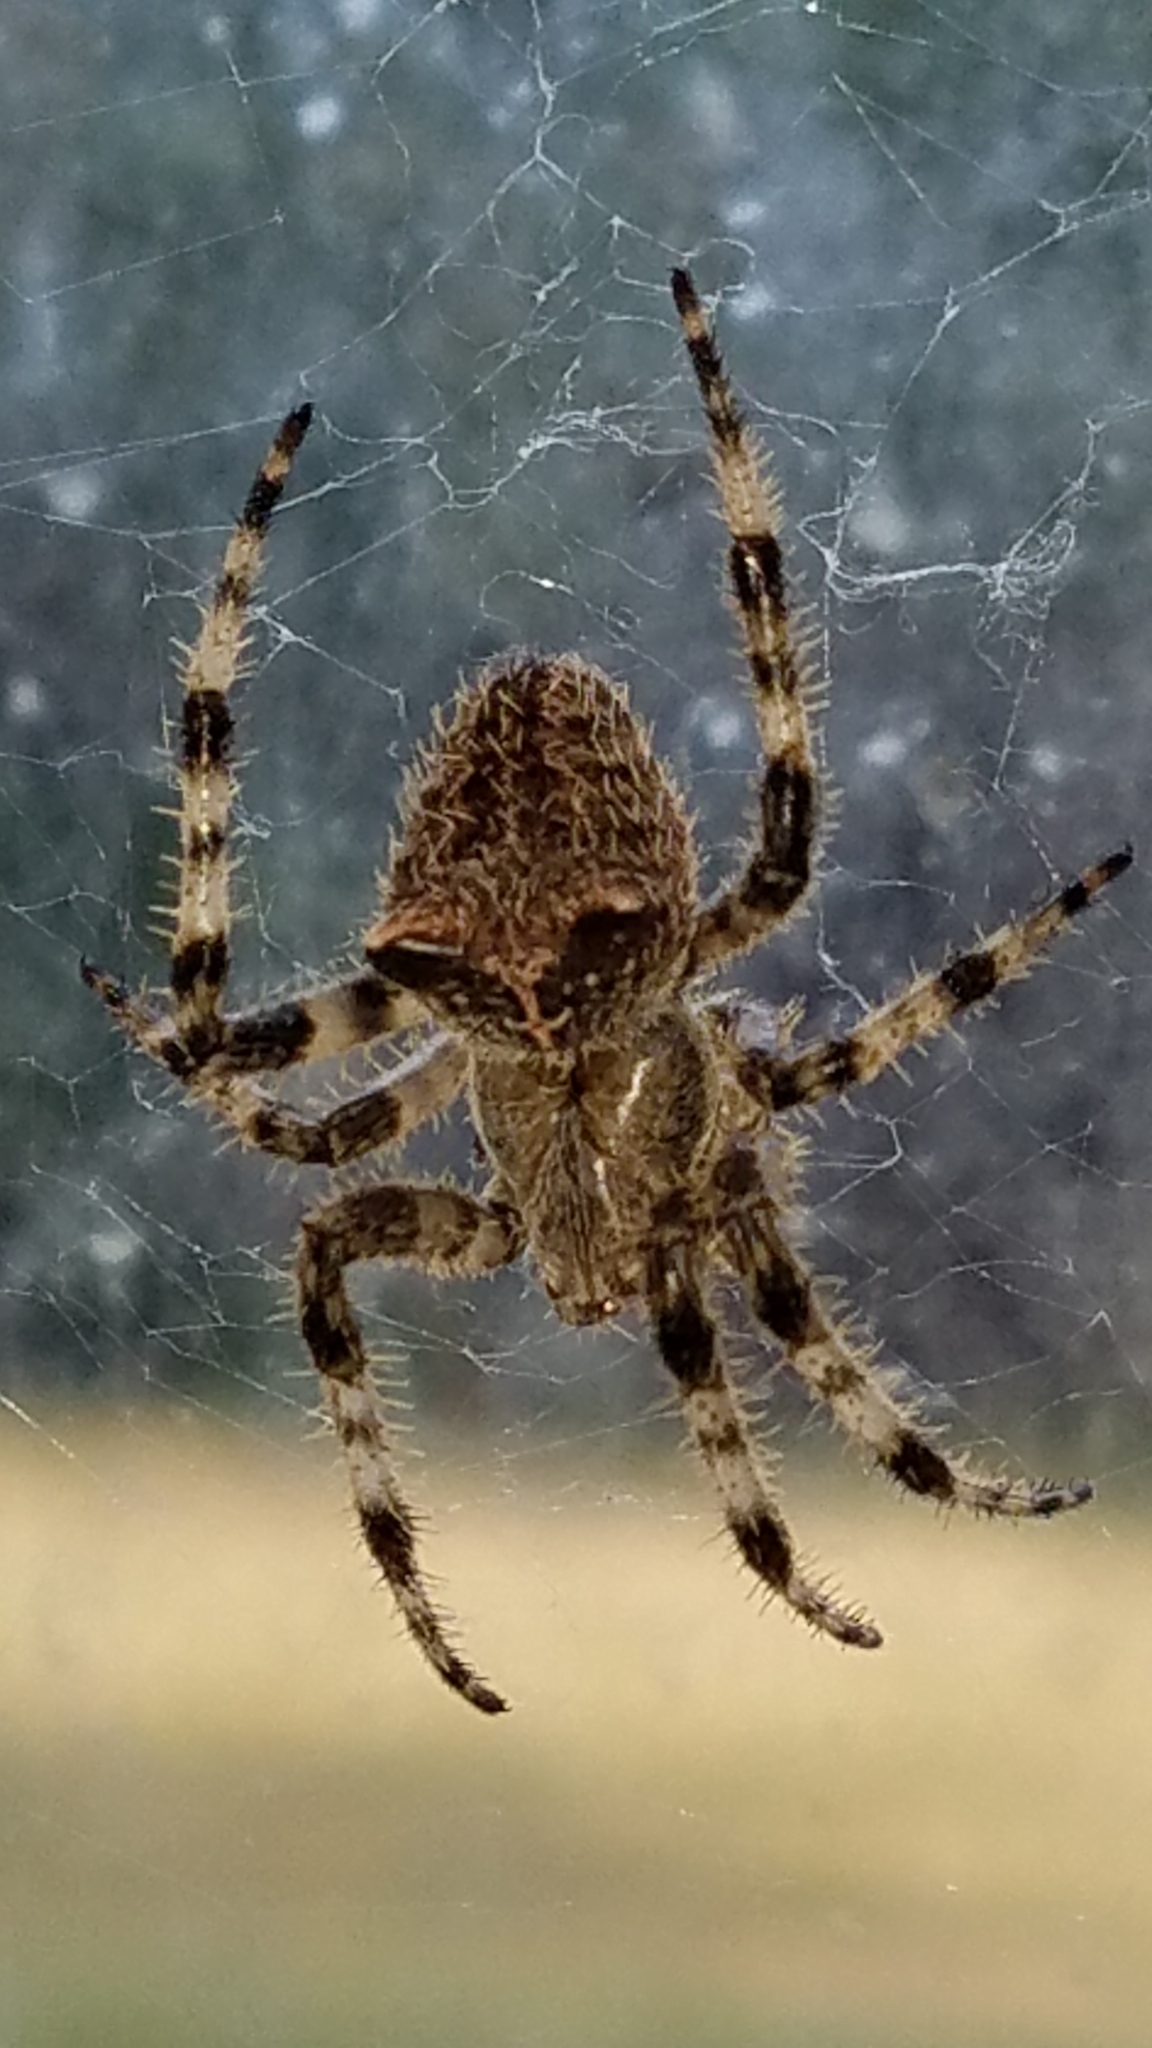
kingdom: Animalia
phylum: Arthropoda
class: Arachnida
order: Araneae
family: Araneidae
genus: Araneus
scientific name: Araneus gemmoides
